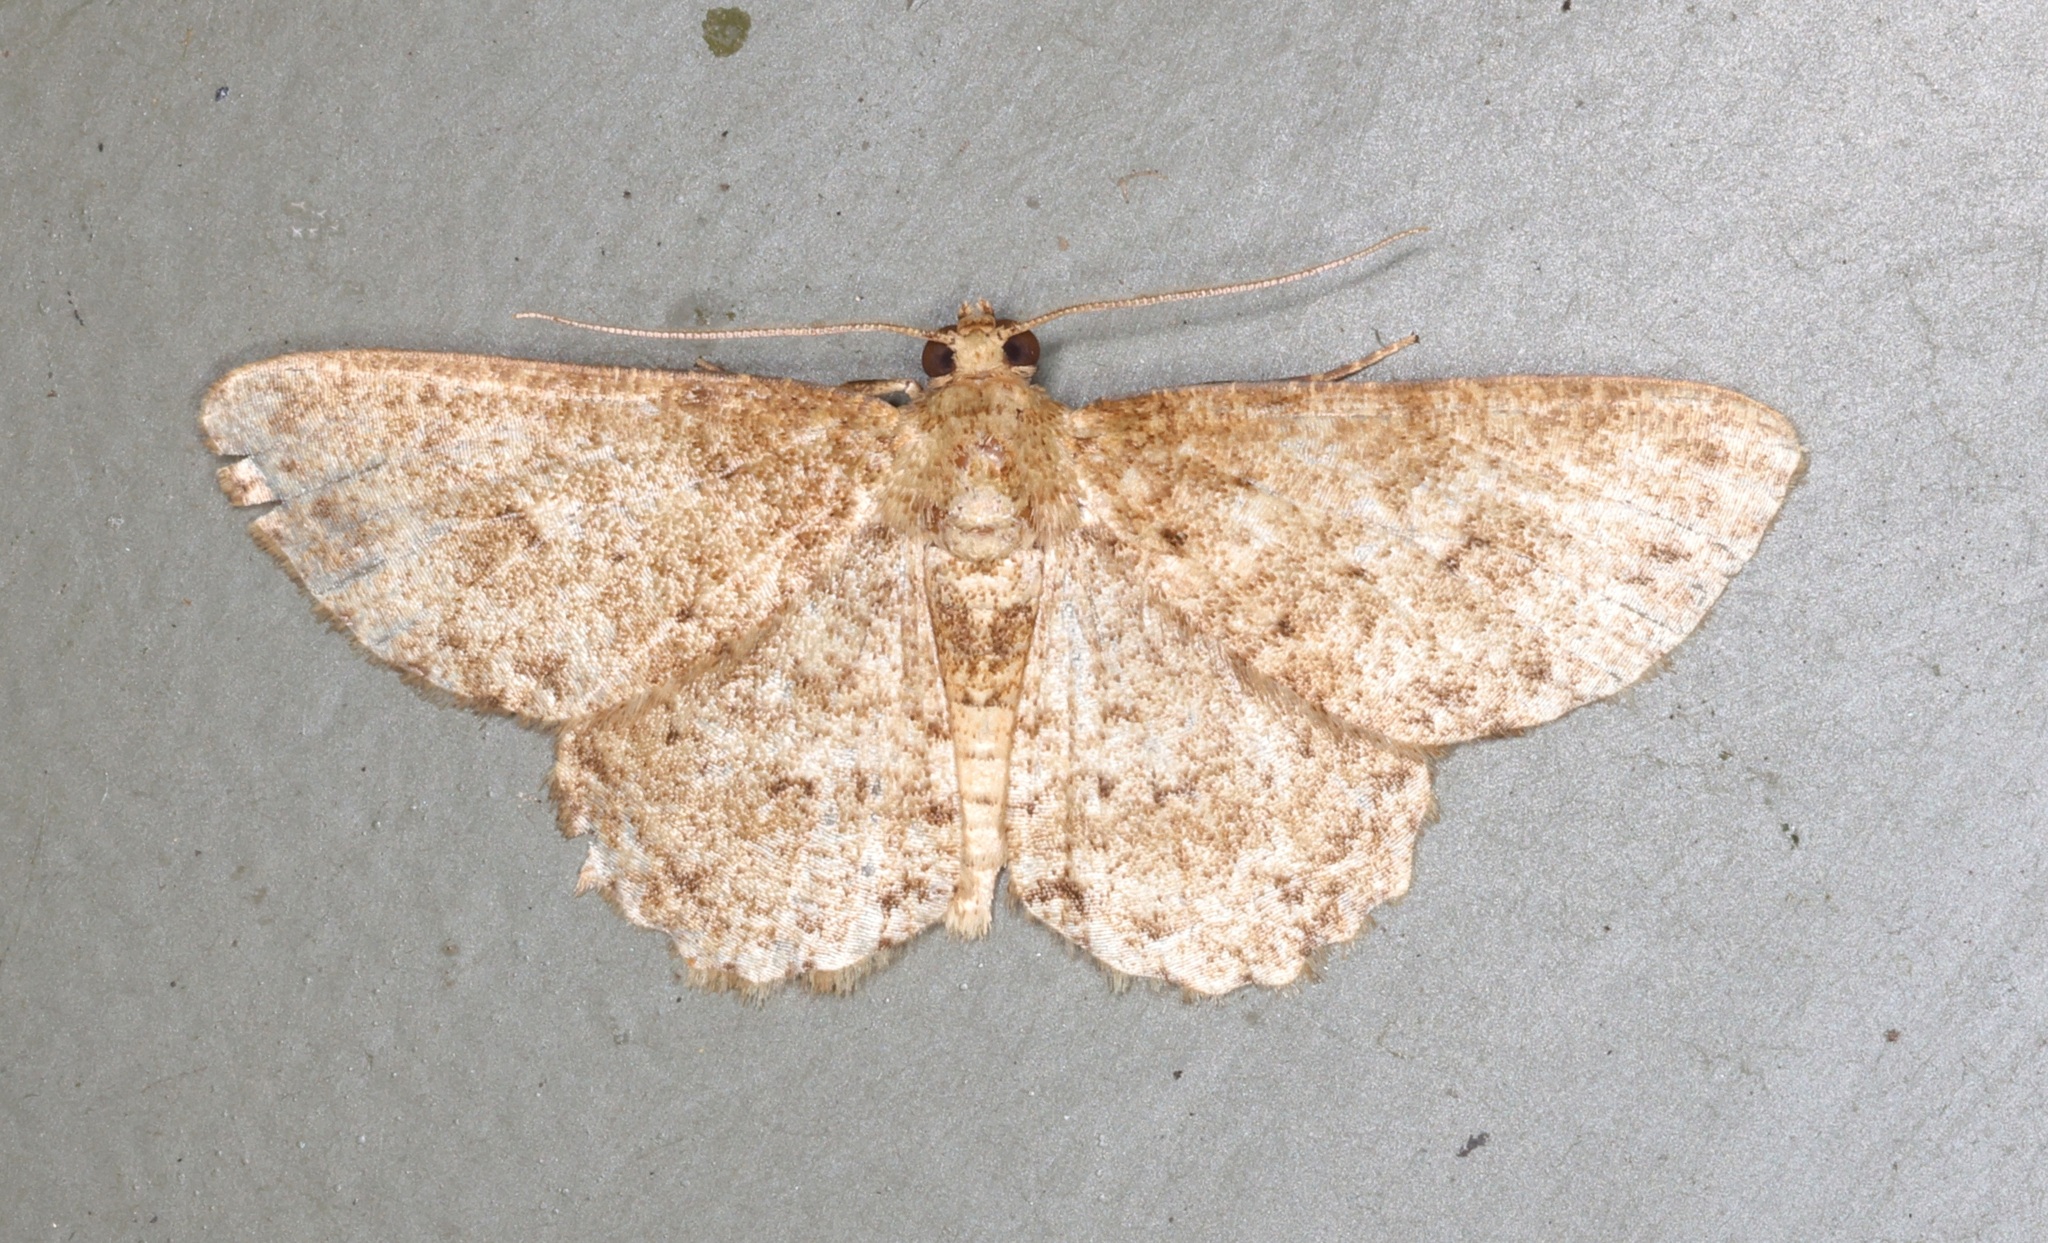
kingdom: Animalia
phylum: Arthropoda
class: Insecta
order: Lepidoptera
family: Geometridae
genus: Ectropis
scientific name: Ectropis bhurmitra
